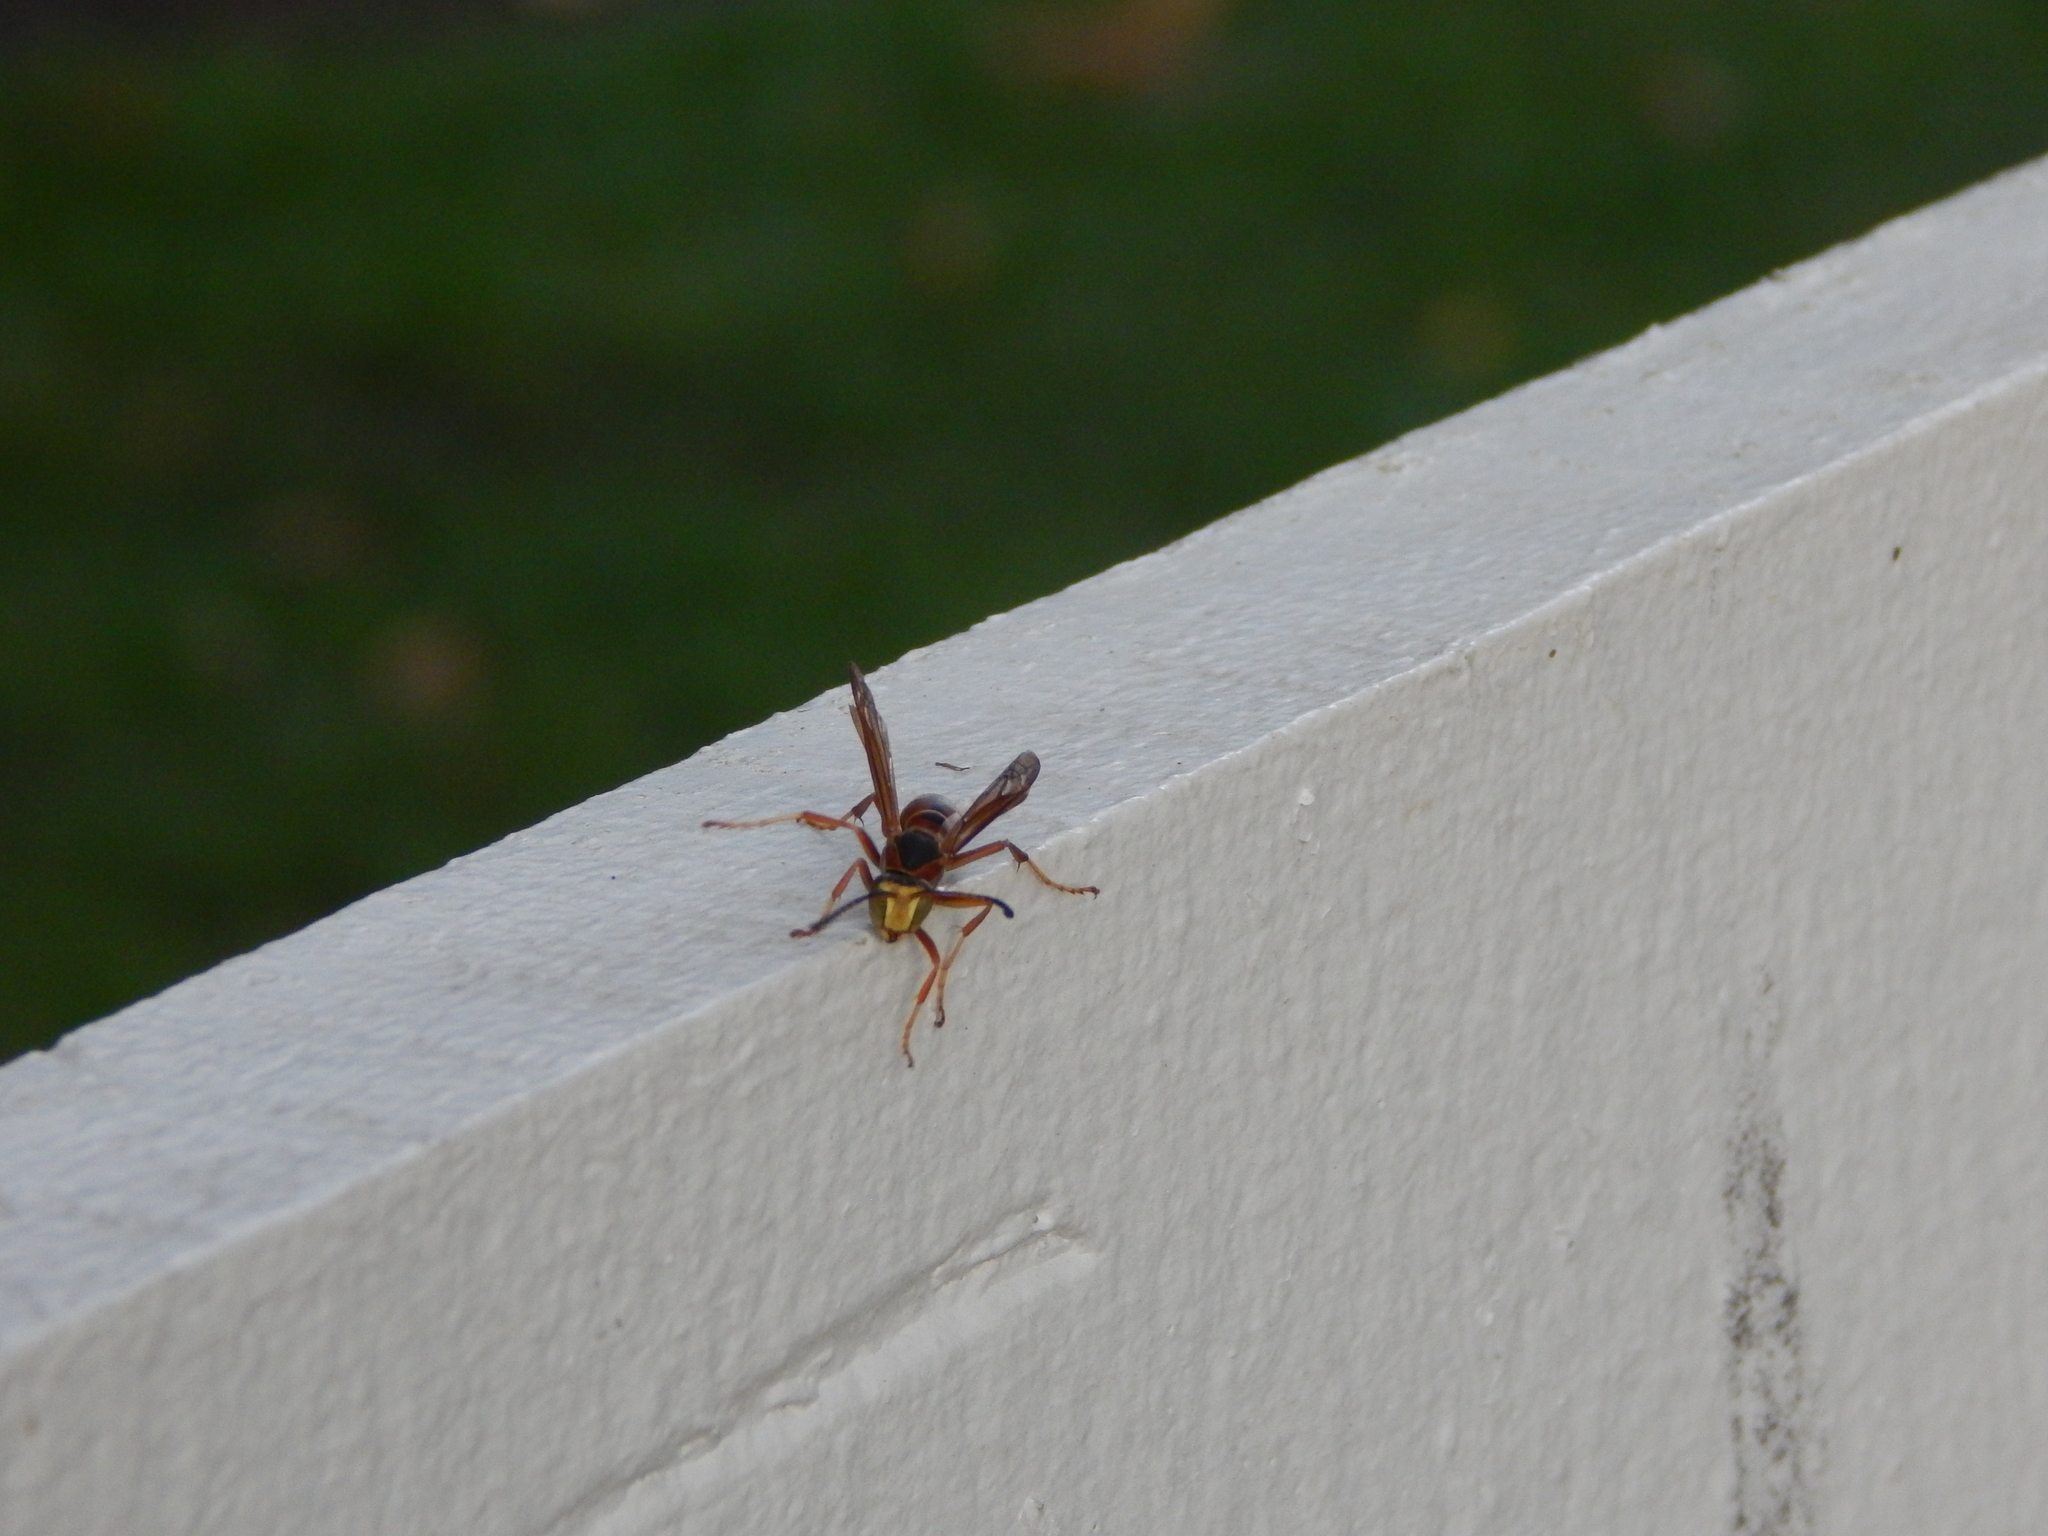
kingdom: Animalia
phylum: Arthropoda
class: Insecta
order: Hymenoptera
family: Eumenidae
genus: Polistes
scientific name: Polistes fuscatus
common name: Dark paper wasp
